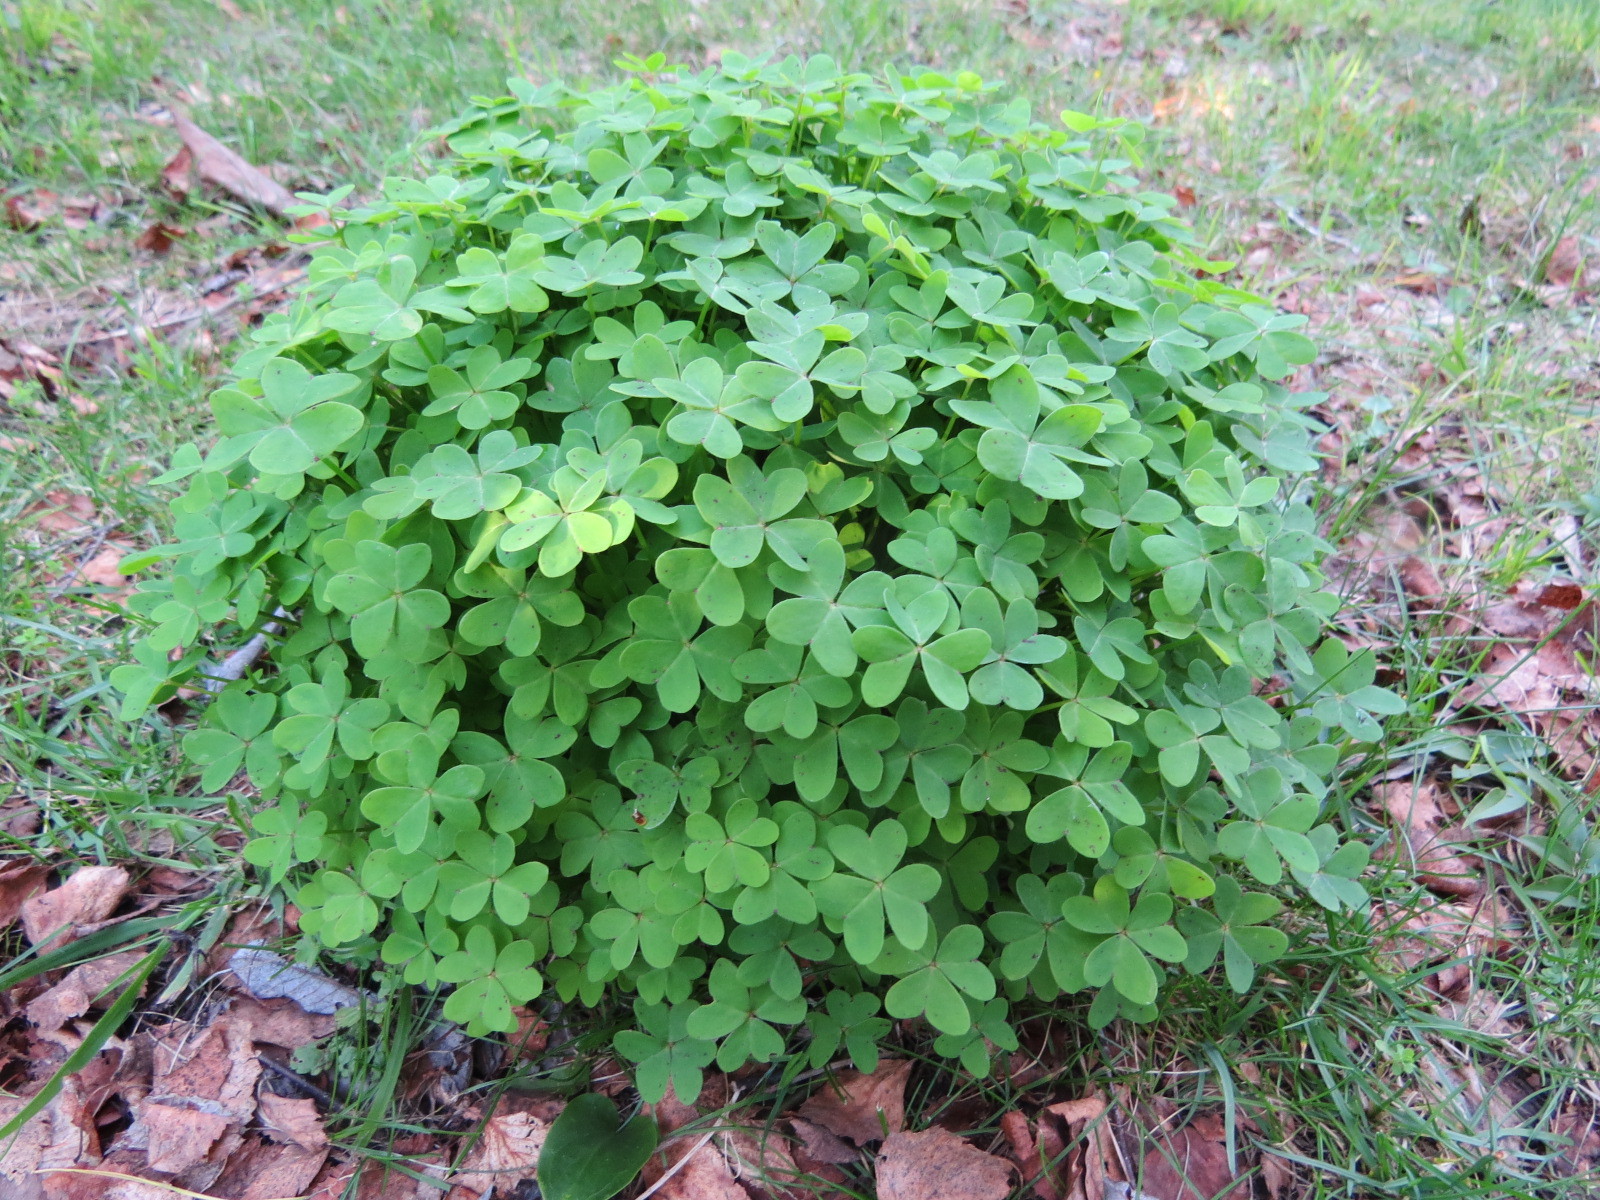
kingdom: Plantae
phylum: Tracheophyta
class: Magnoliopsida
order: Oxalidales
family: Oxalidaceae
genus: Oxalis
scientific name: Oxalis pes-caprae
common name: Bermuda-buttercup
